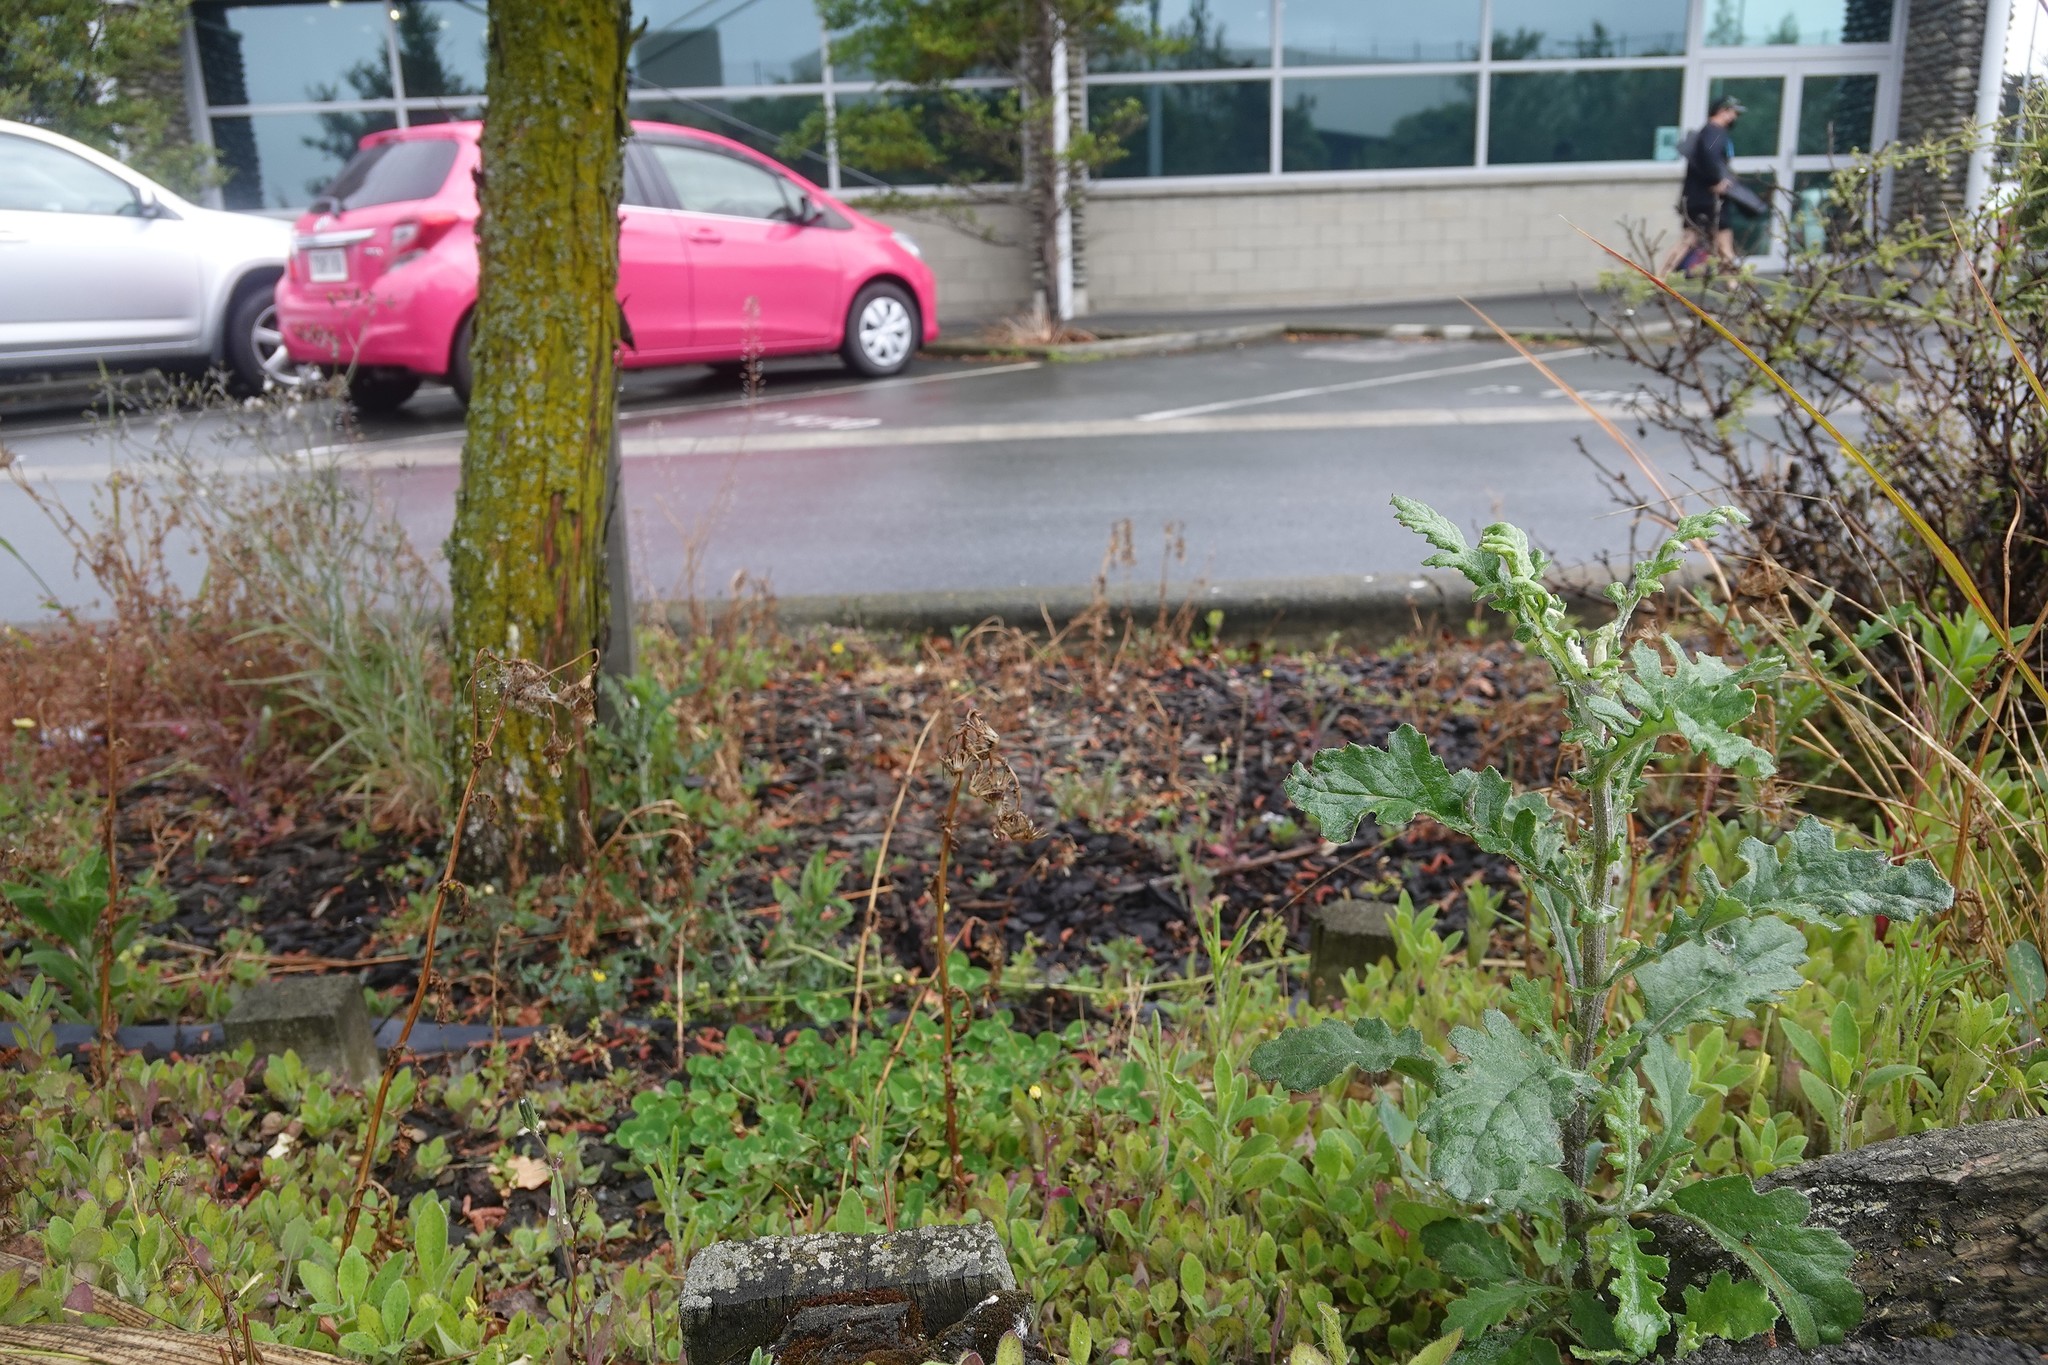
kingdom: Plantae
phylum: Tracheophyta
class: Magnoliopsida
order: Asterales
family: Asteraceae
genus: Senecio
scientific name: Senecio glomeratus
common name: Cutleaf burnweed
